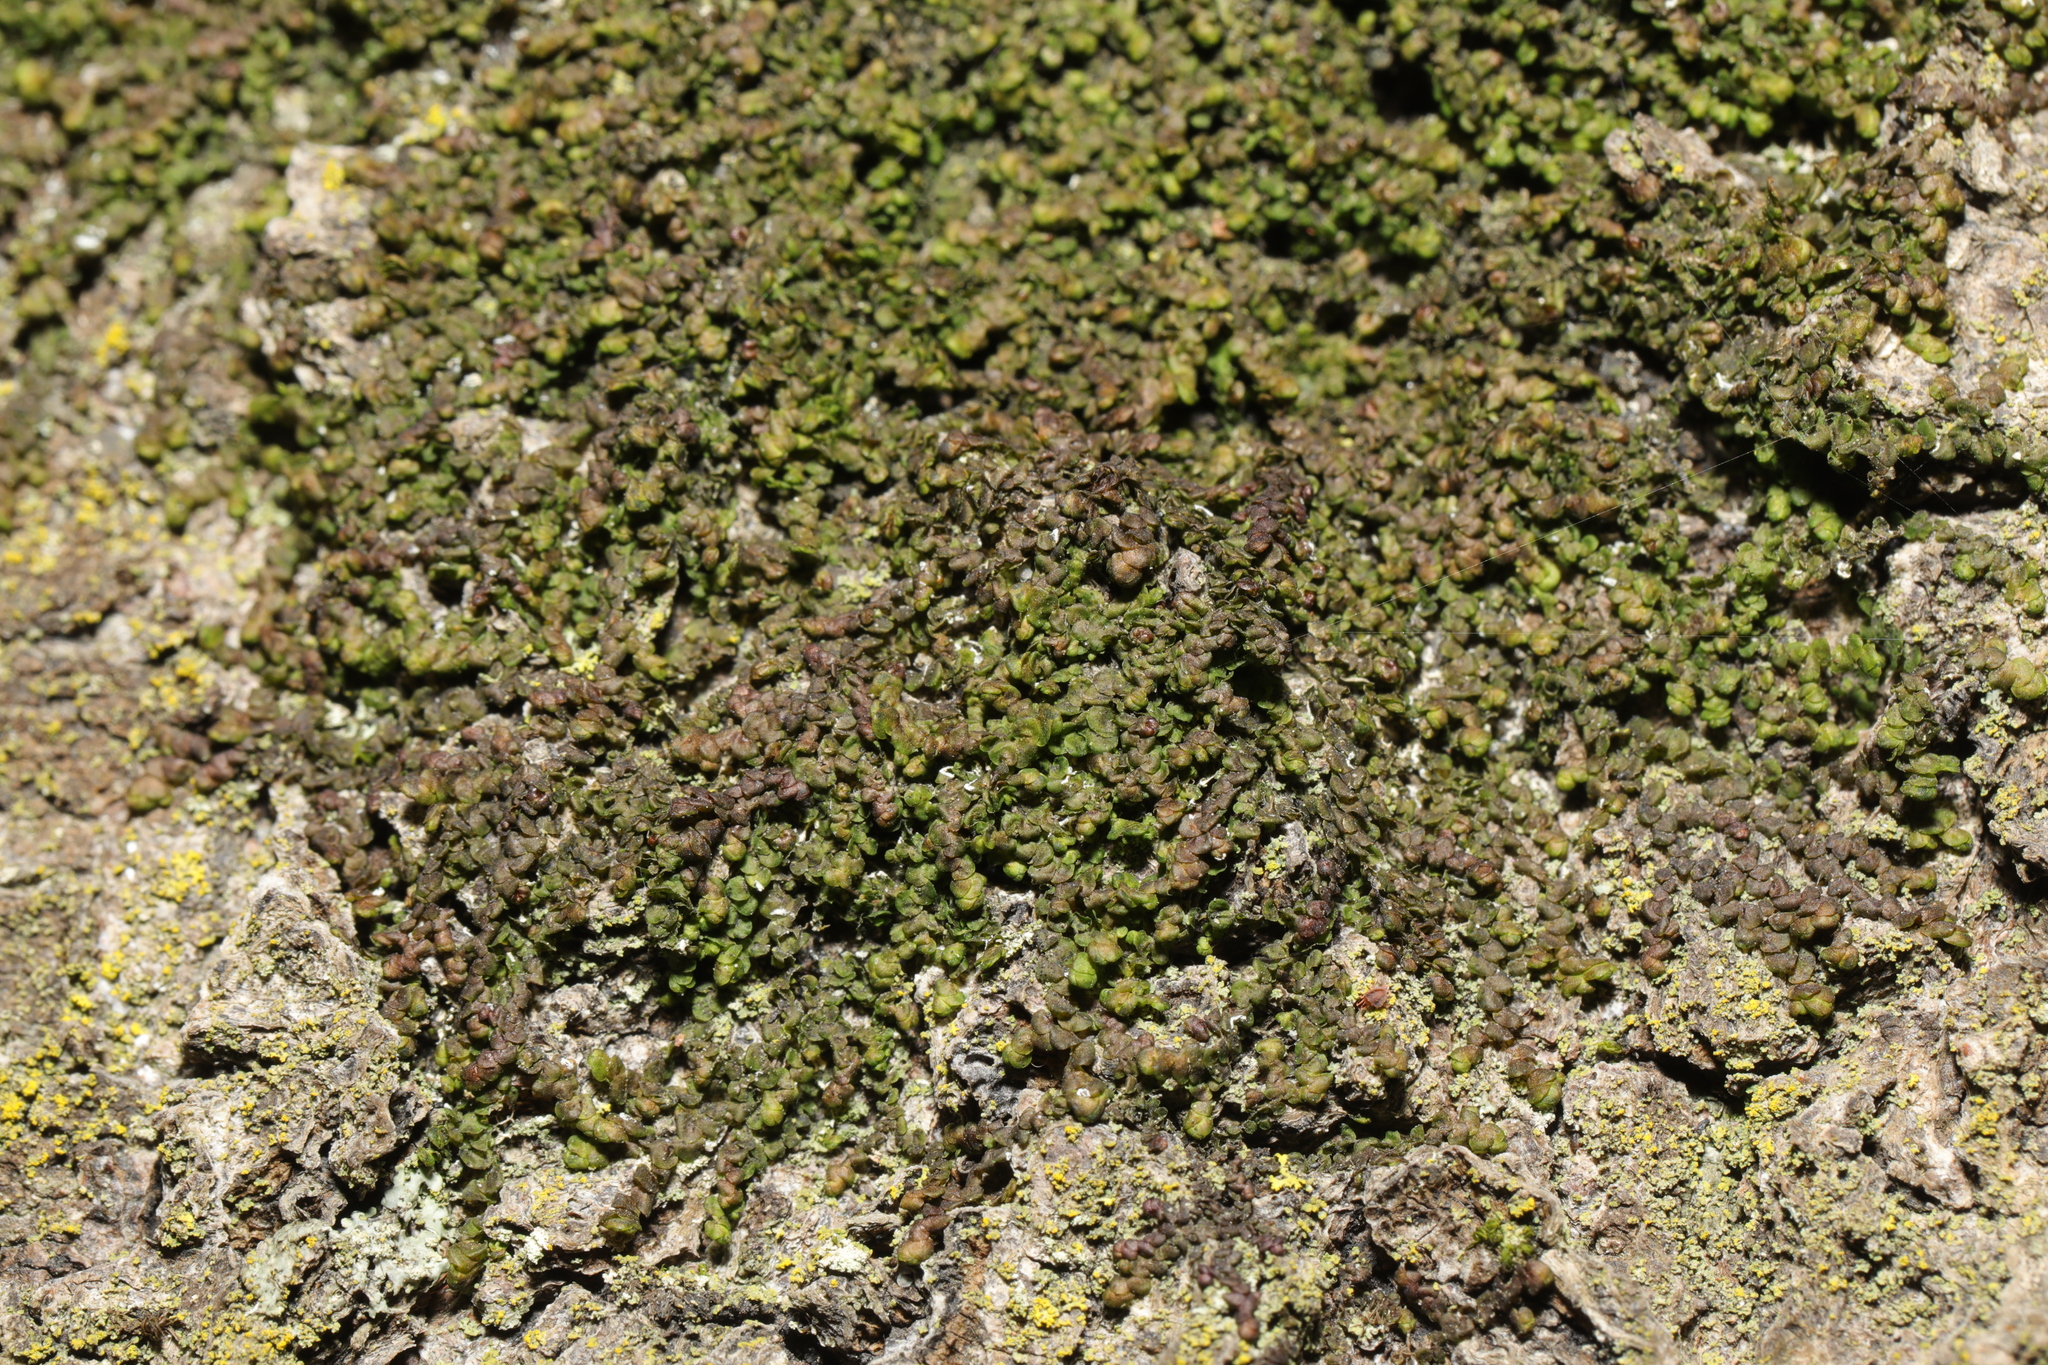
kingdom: Plantae
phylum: Marchantiophyta
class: Jungermanniopsida
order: Porellales
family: Frullaniaceae
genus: Frullania
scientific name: Frullania dilatata
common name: Dilated scalewort
